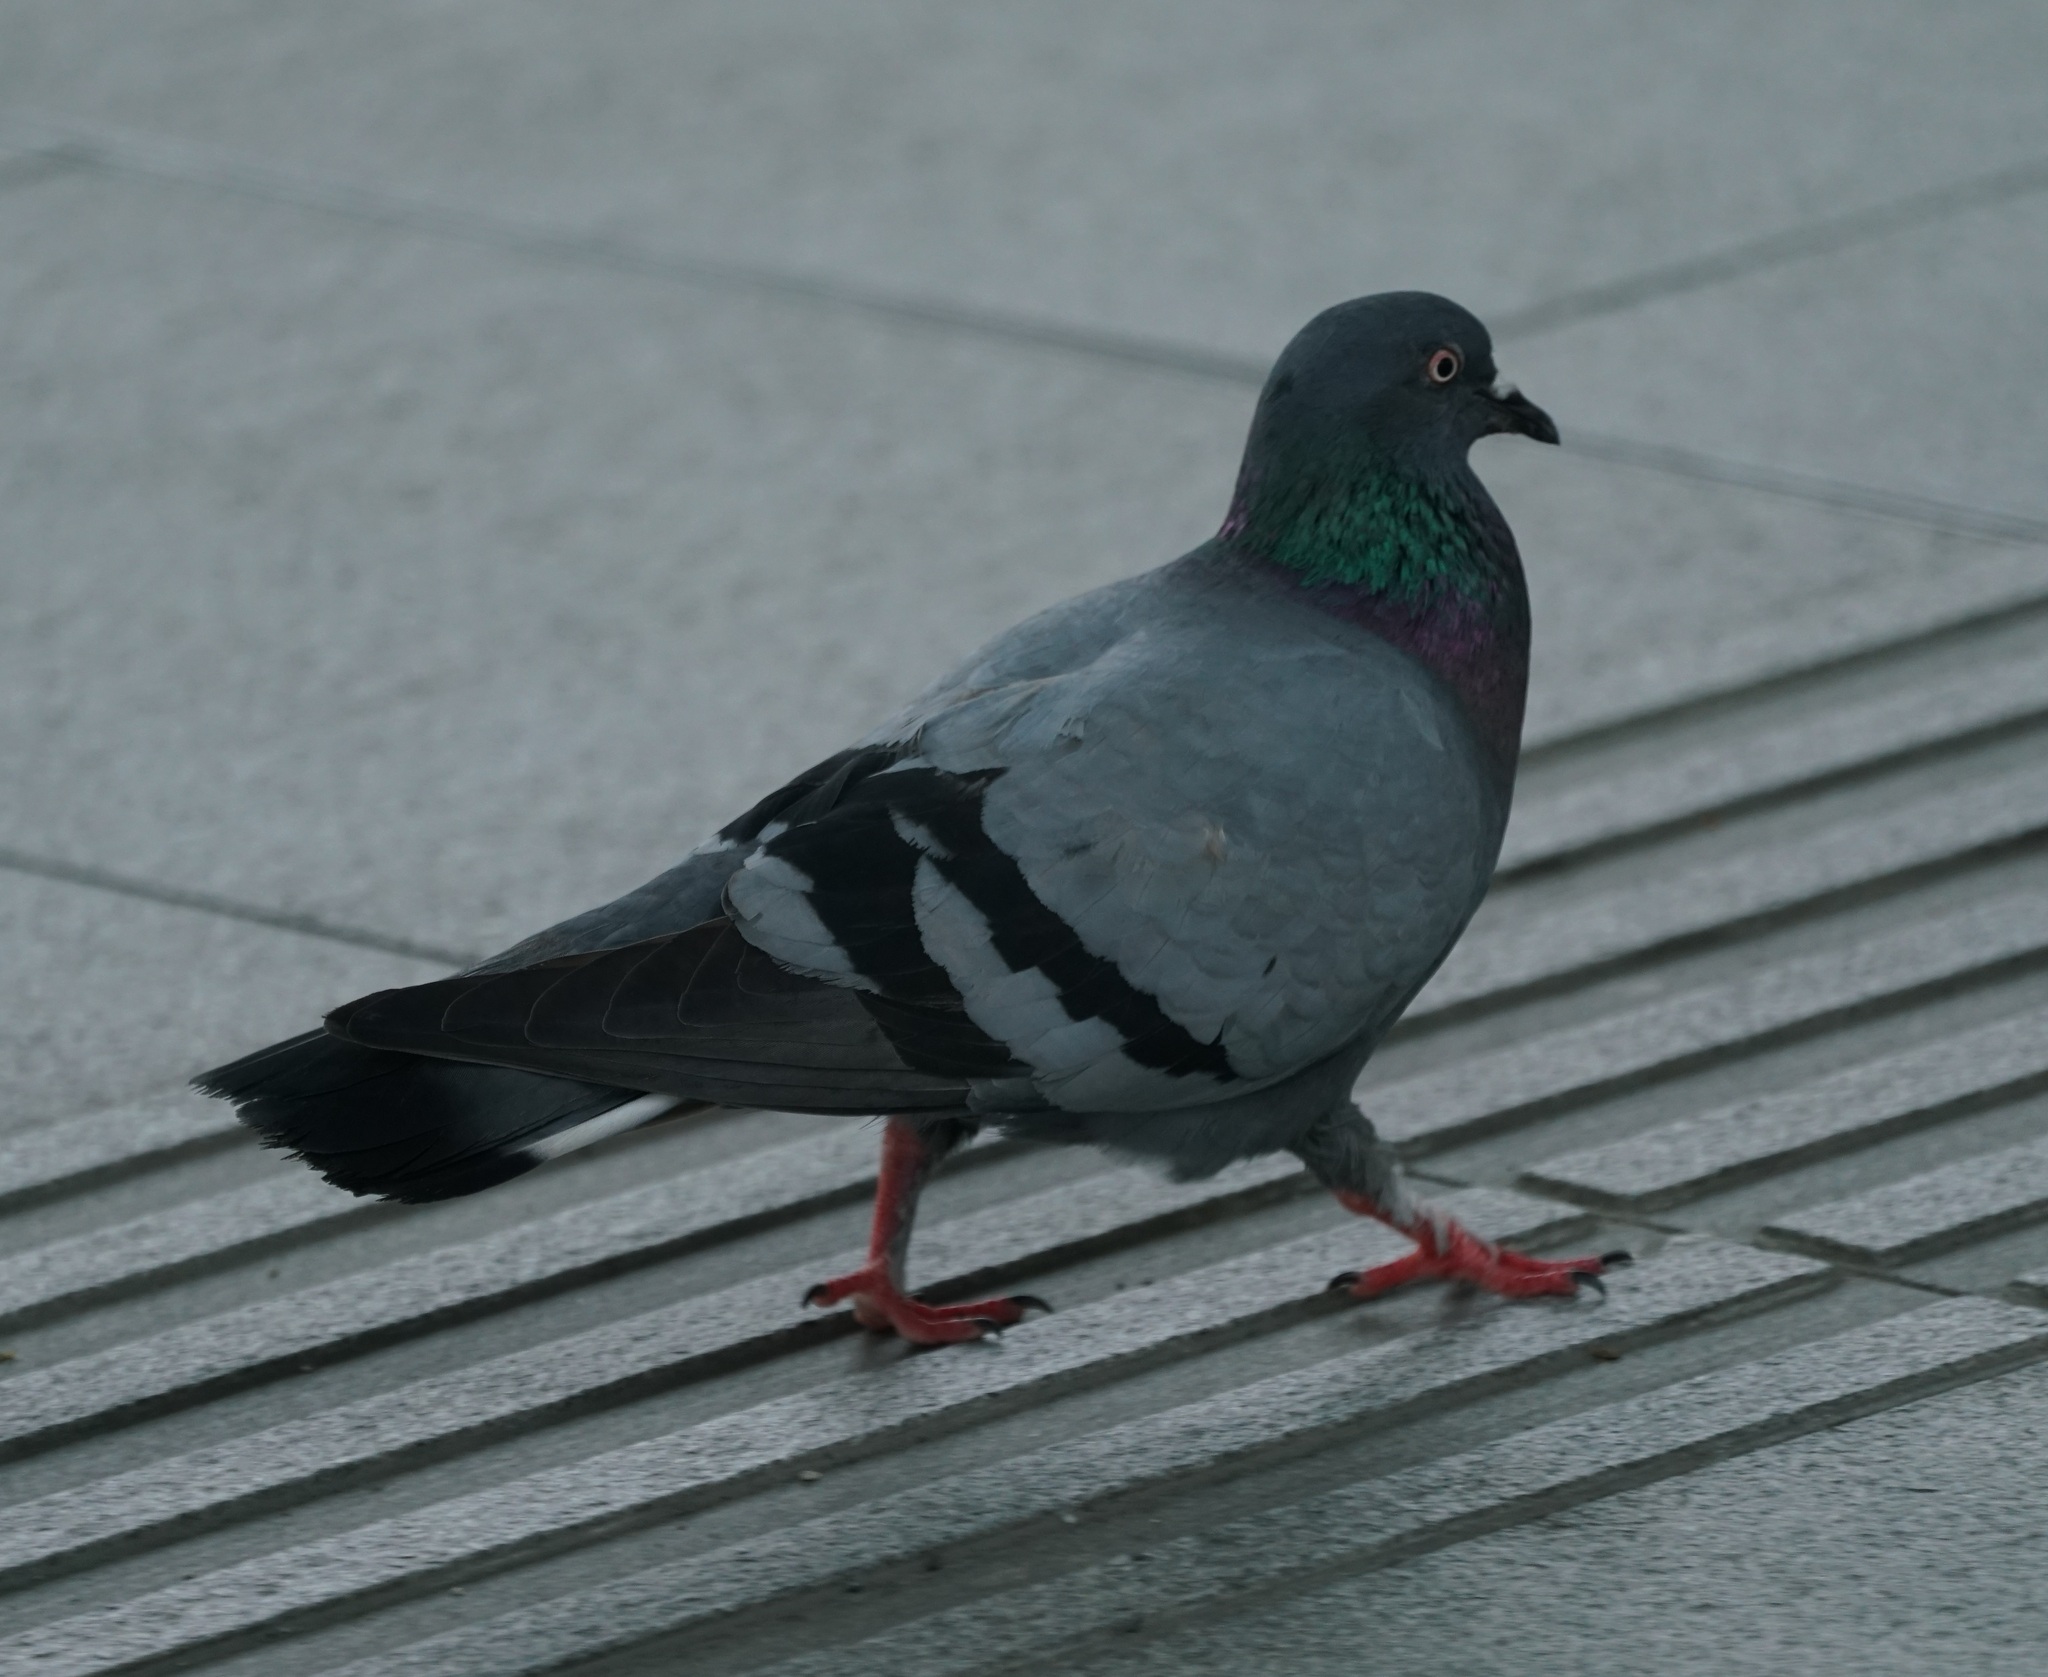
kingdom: Animalia
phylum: Chordata
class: Aves
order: Columbiformes
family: Columbidae
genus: Columba
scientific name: Columba livia
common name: Rock pigeon
